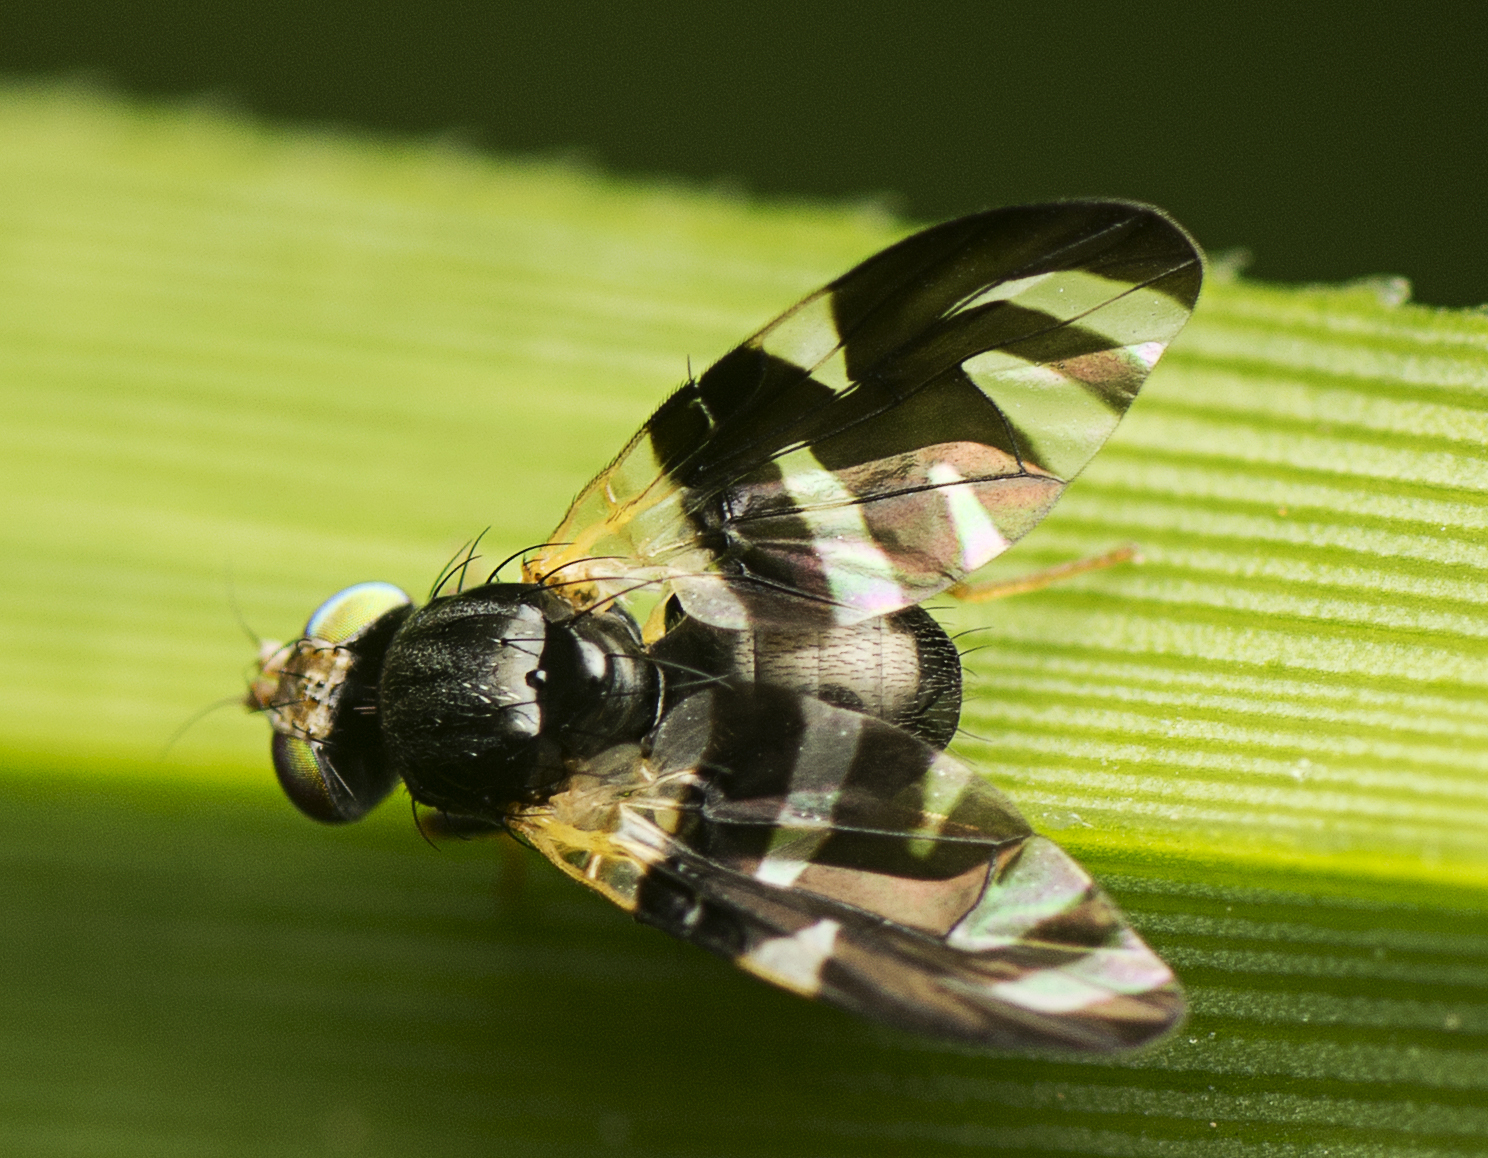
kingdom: Animalia
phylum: Arthropoda
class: Insecta
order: Diptera
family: Tephritidae
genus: Sphaeniscus
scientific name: Sphaeniscus atilius
